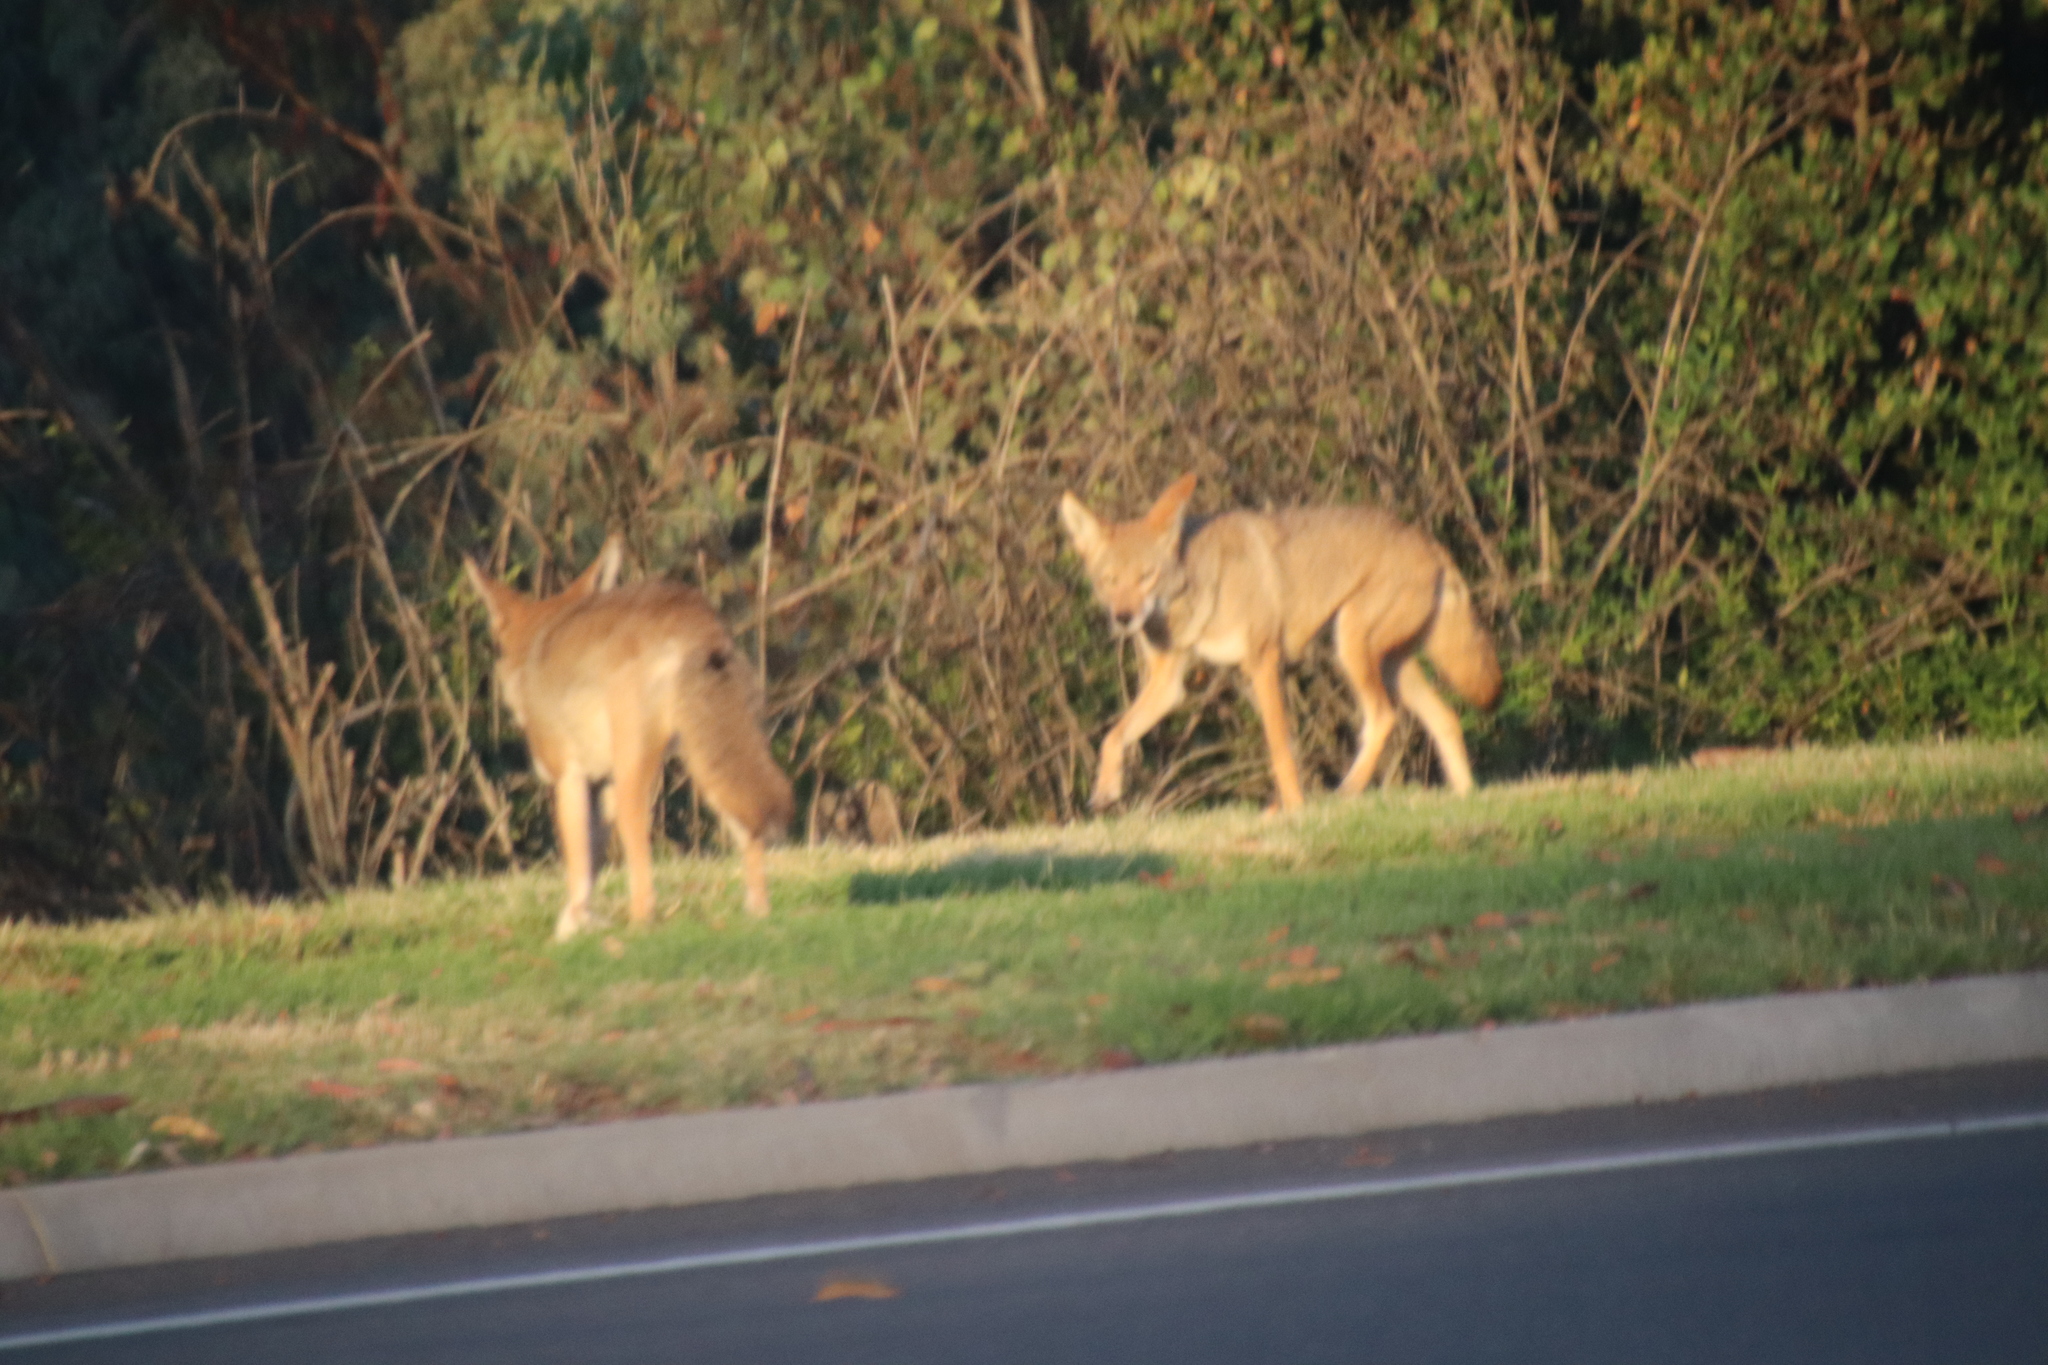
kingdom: Animalia
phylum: Chordata
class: Mammalia
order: Carnivora
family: Canidae
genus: Canis
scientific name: Canis latrans
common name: Coyote
